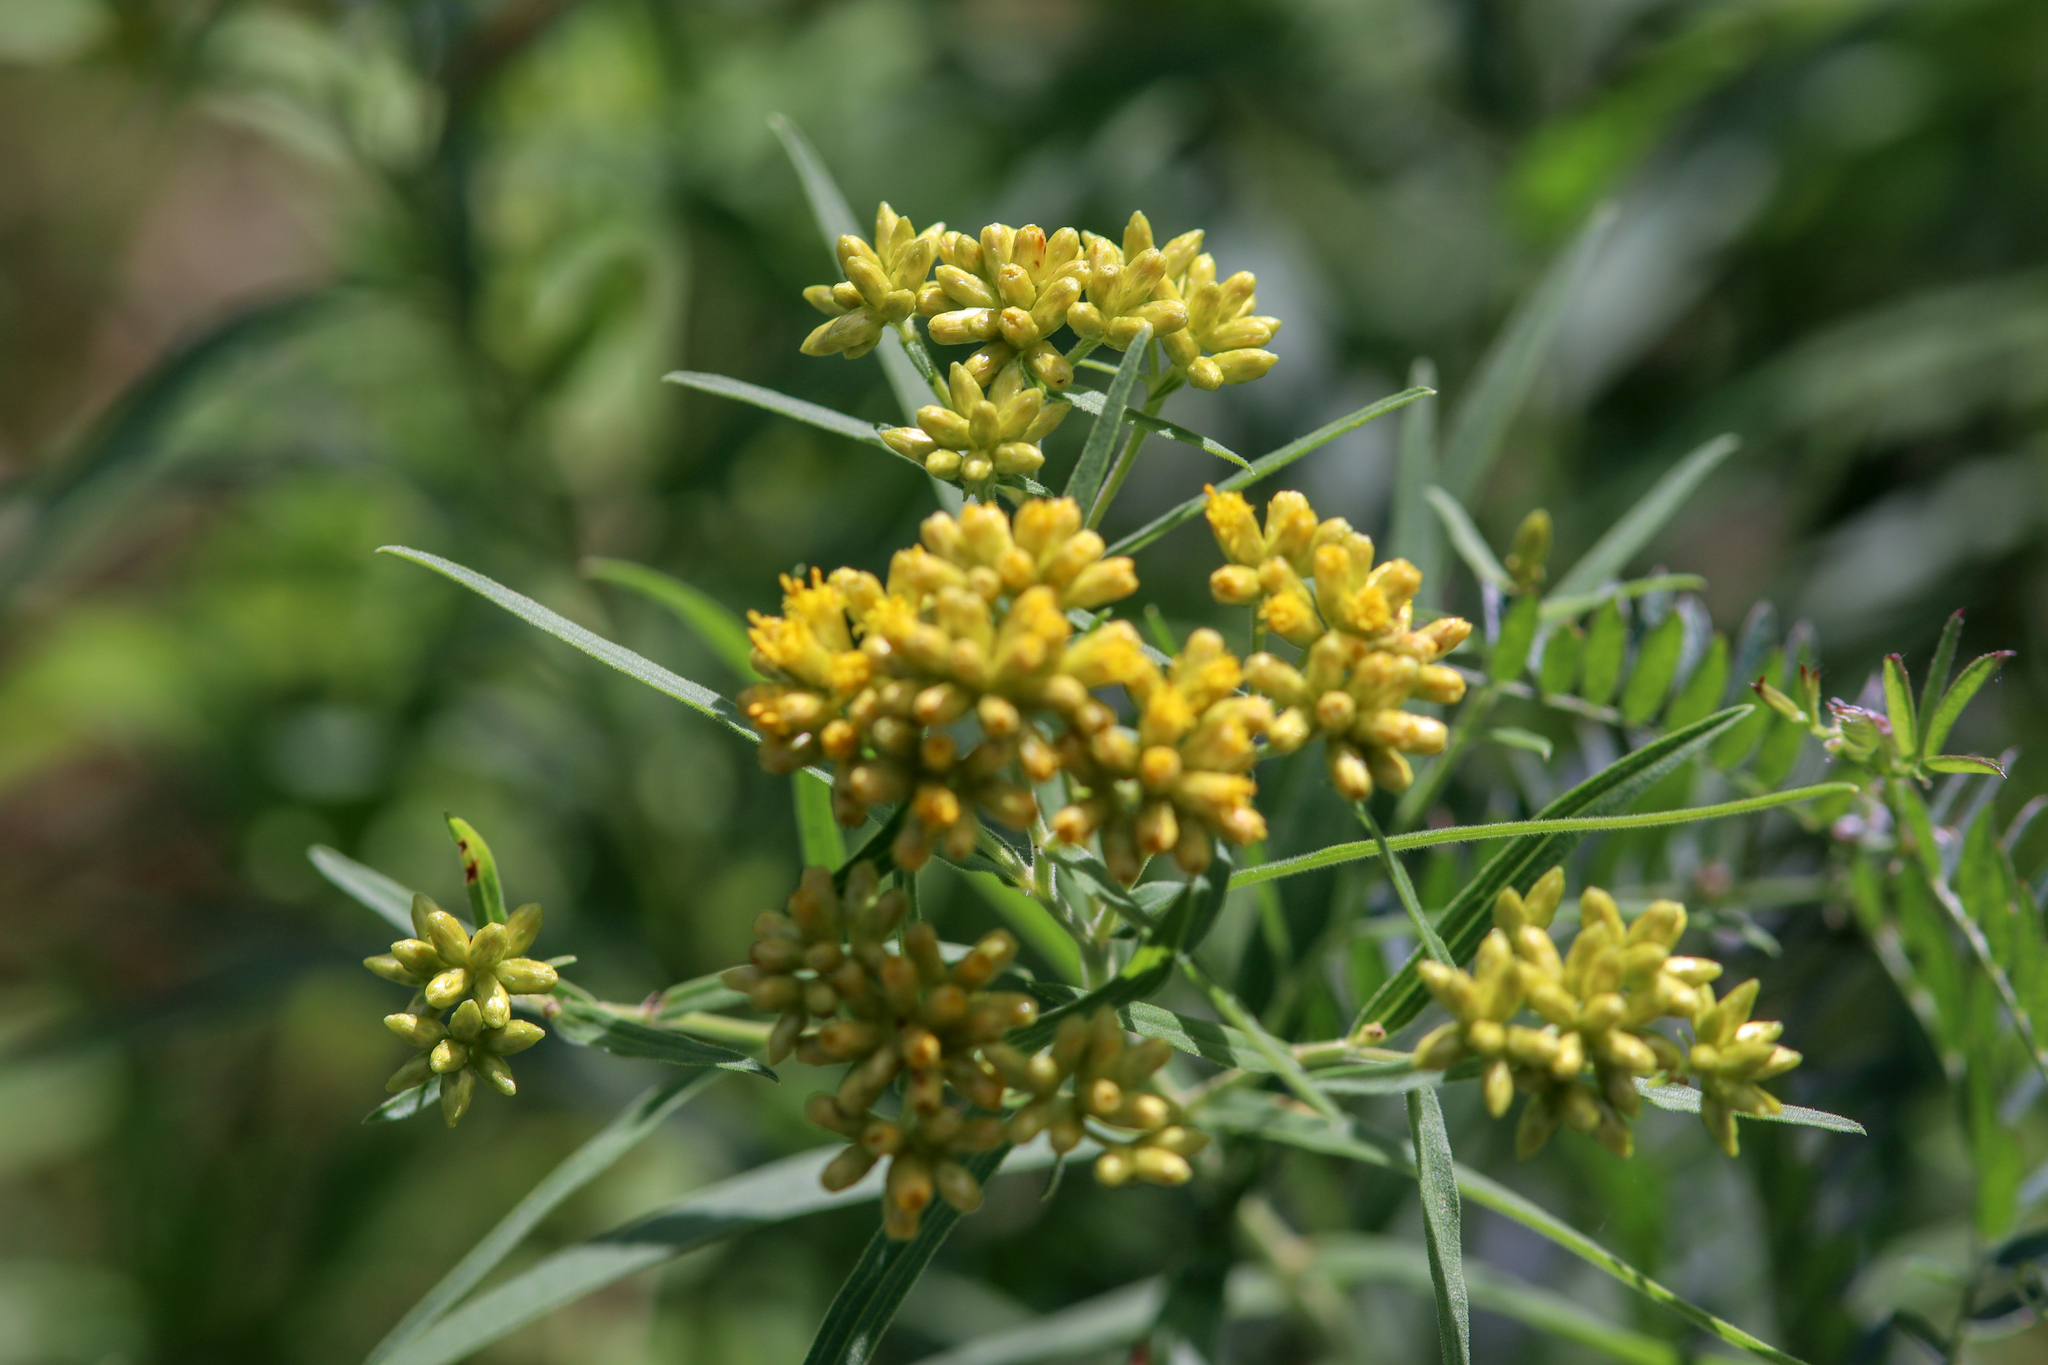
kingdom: Plantae
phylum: Tracheophyta
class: Magnoliopsida
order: Asterales
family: Asteraceae
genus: Euthamia
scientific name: Euthamia graminifolia
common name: Common goldentop
